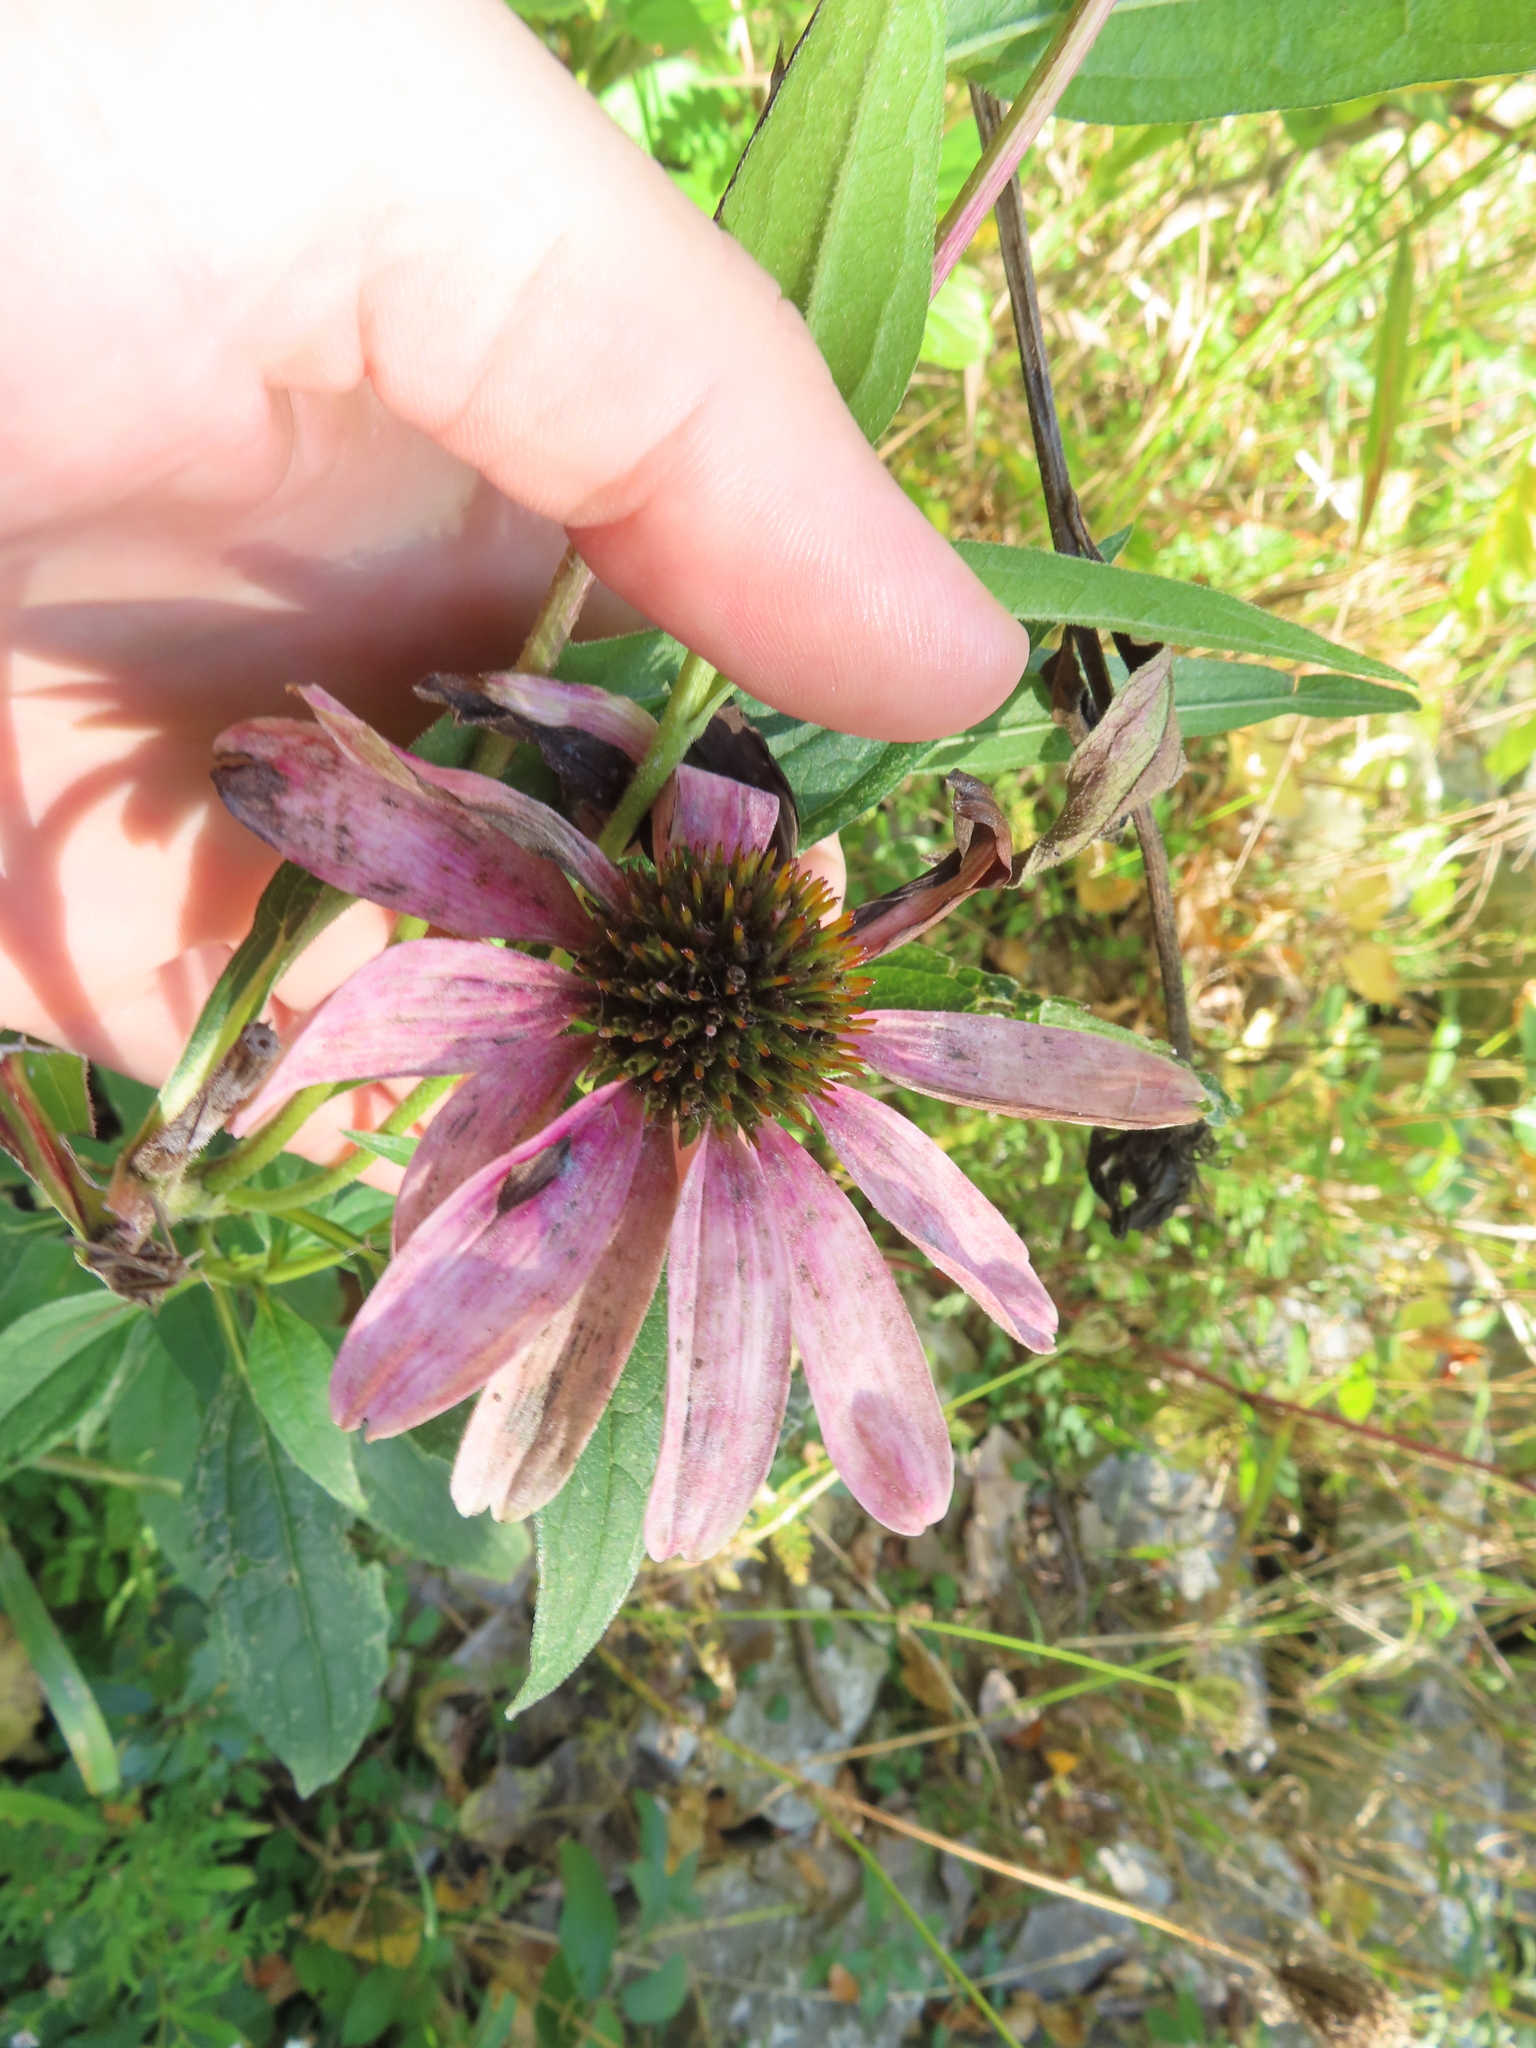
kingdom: Plantae
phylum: Tracheophyta
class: Magnoliopsida
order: Asterales
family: Asteraceae
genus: Echinacea
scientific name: Echinacea purpurea
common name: Broad-leaved purple coneflower
